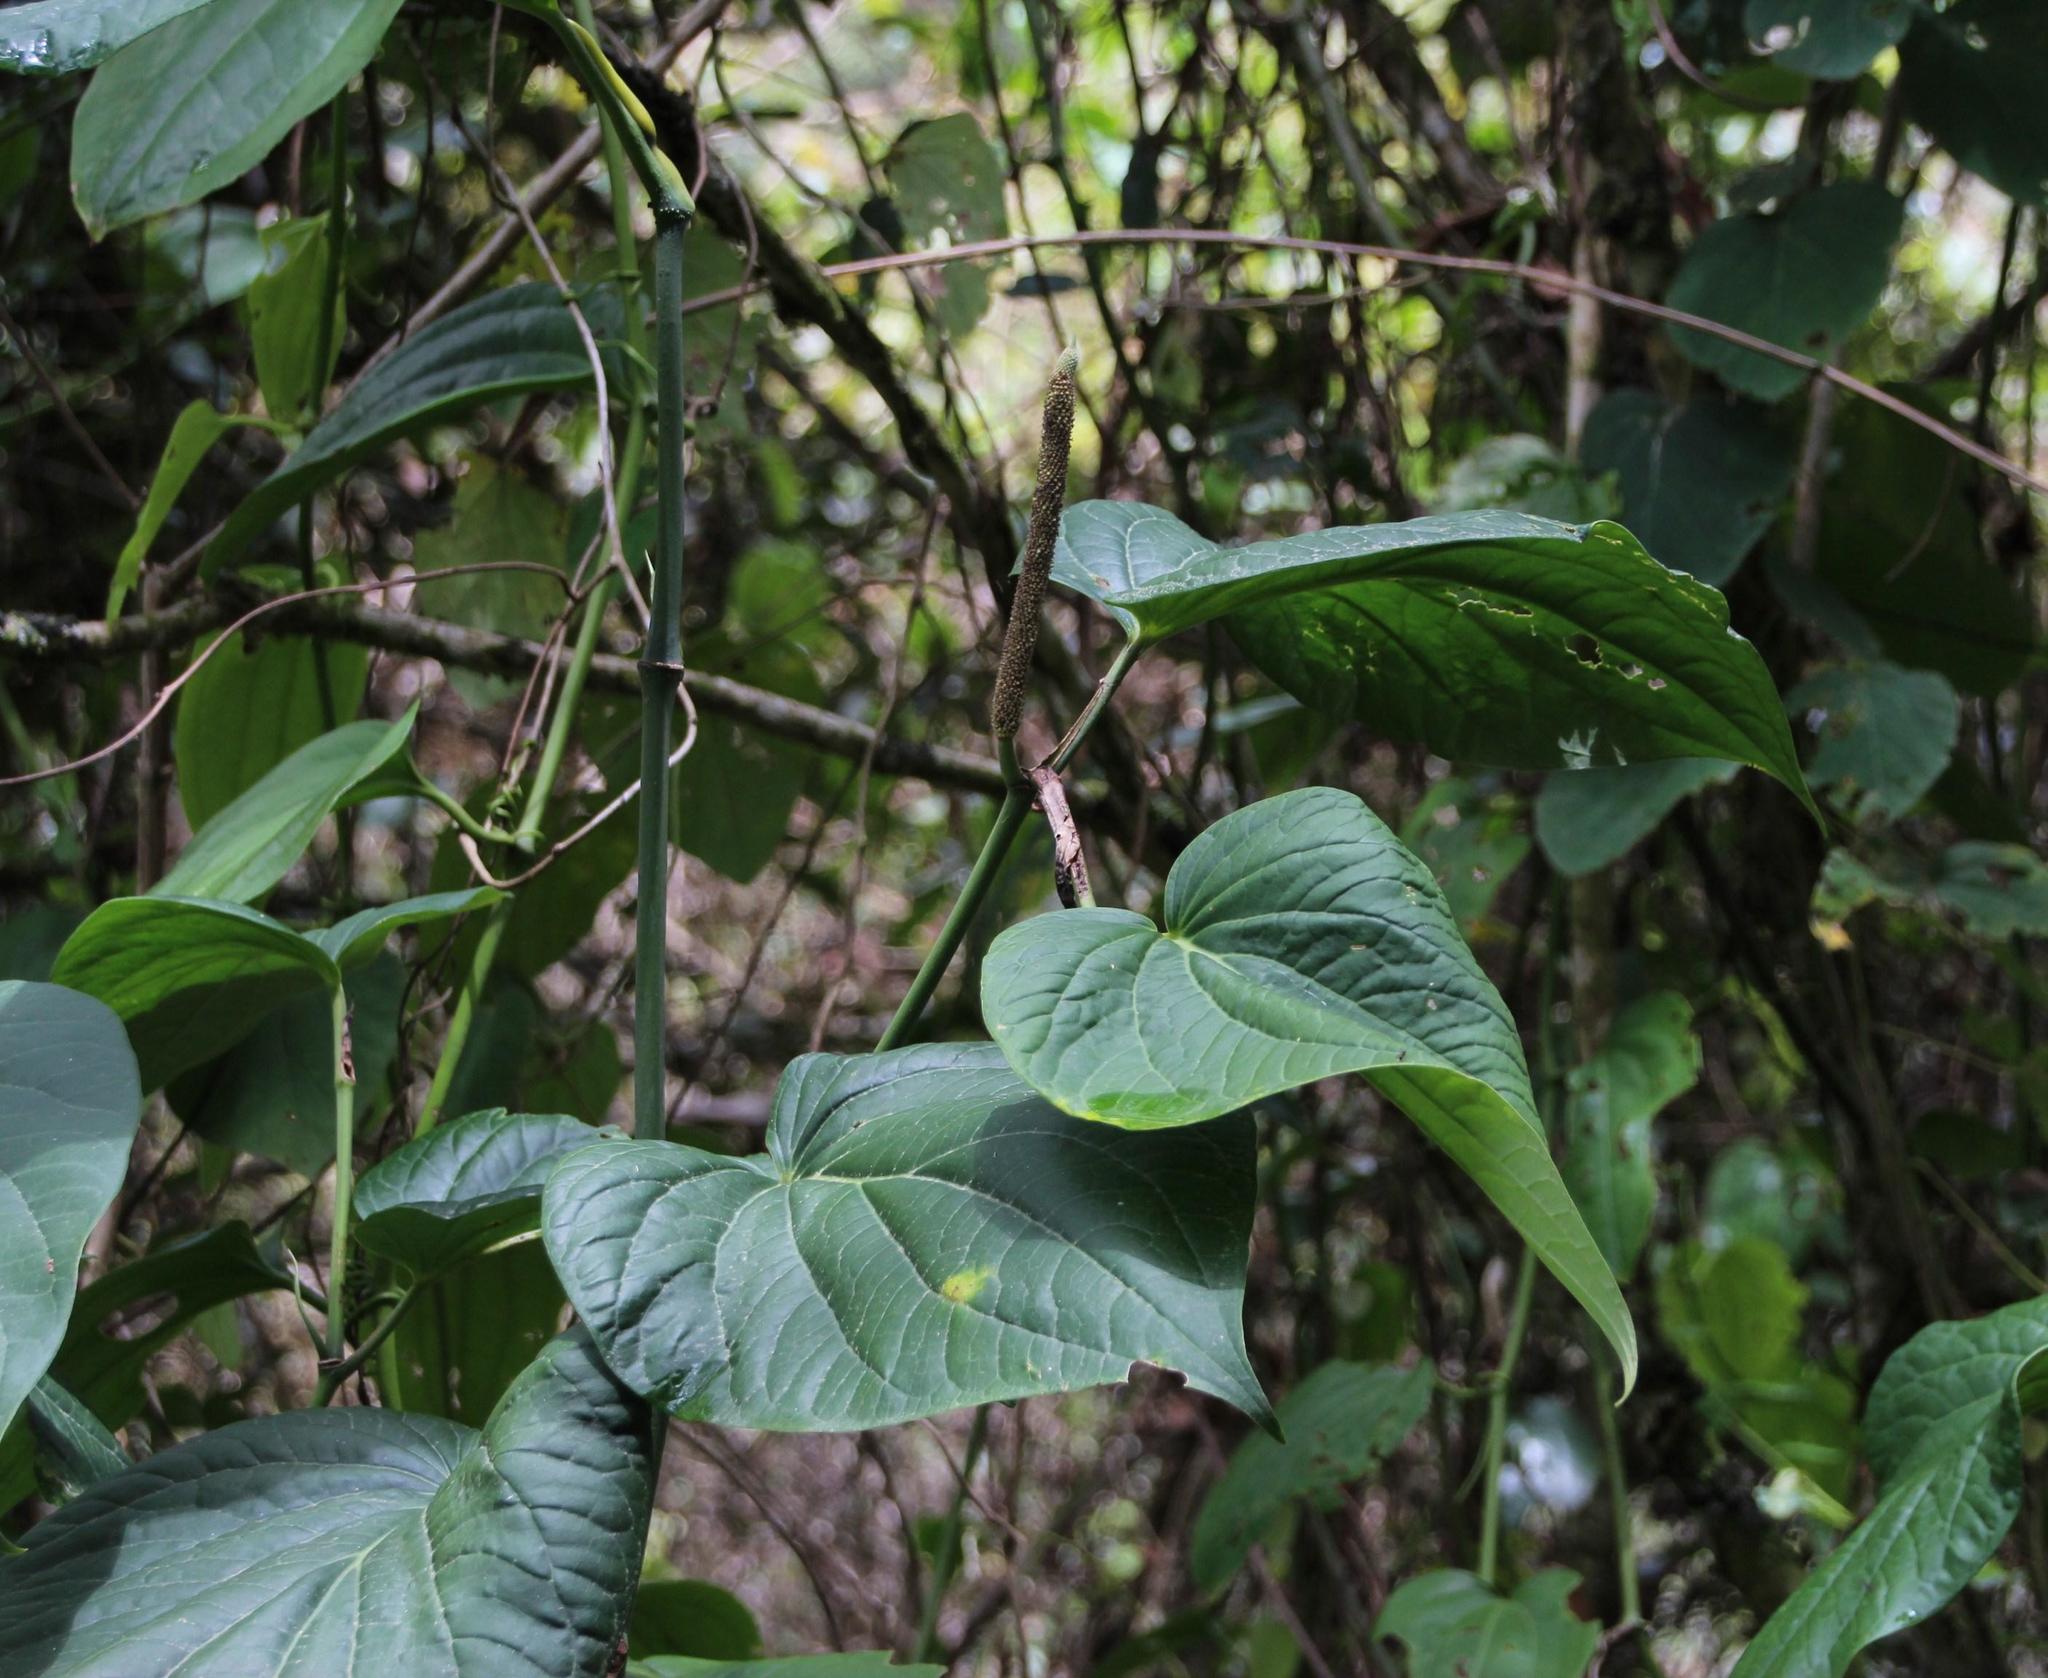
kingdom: Plantae
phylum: Tracheophyta
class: Magnoliopsida
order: Piperales
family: Piperaceae
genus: Piper
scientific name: Piper marginatum
